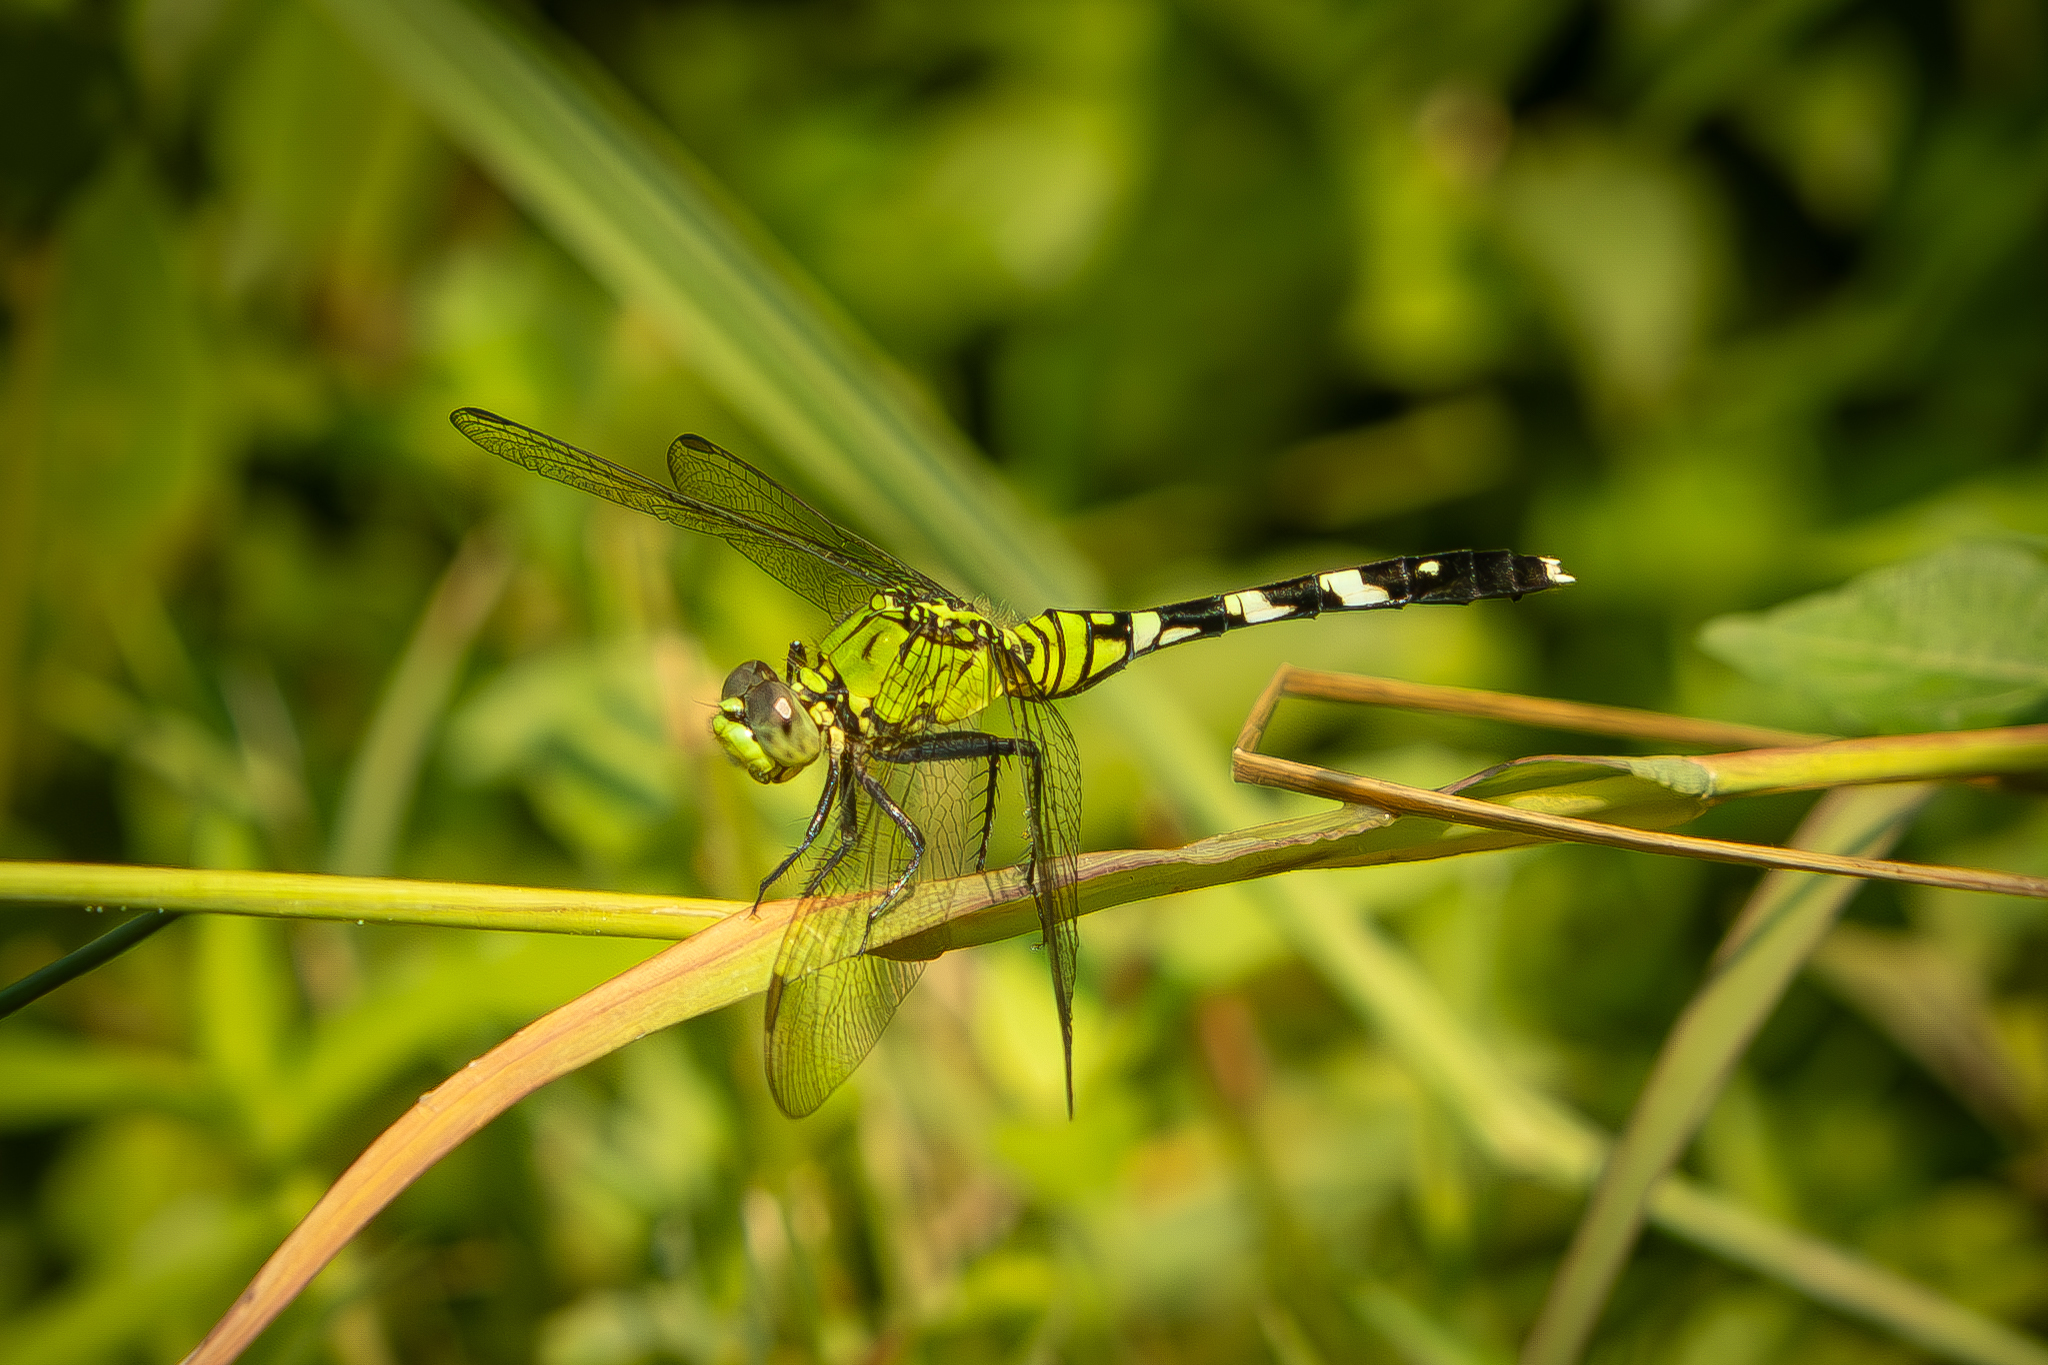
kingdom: Animalia
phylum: Arthropoda
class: Insecta
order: Odonata
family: Libellulidae
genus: Erythemis
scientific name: Erythemis simplicicollis
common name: Eastern pondhawk
